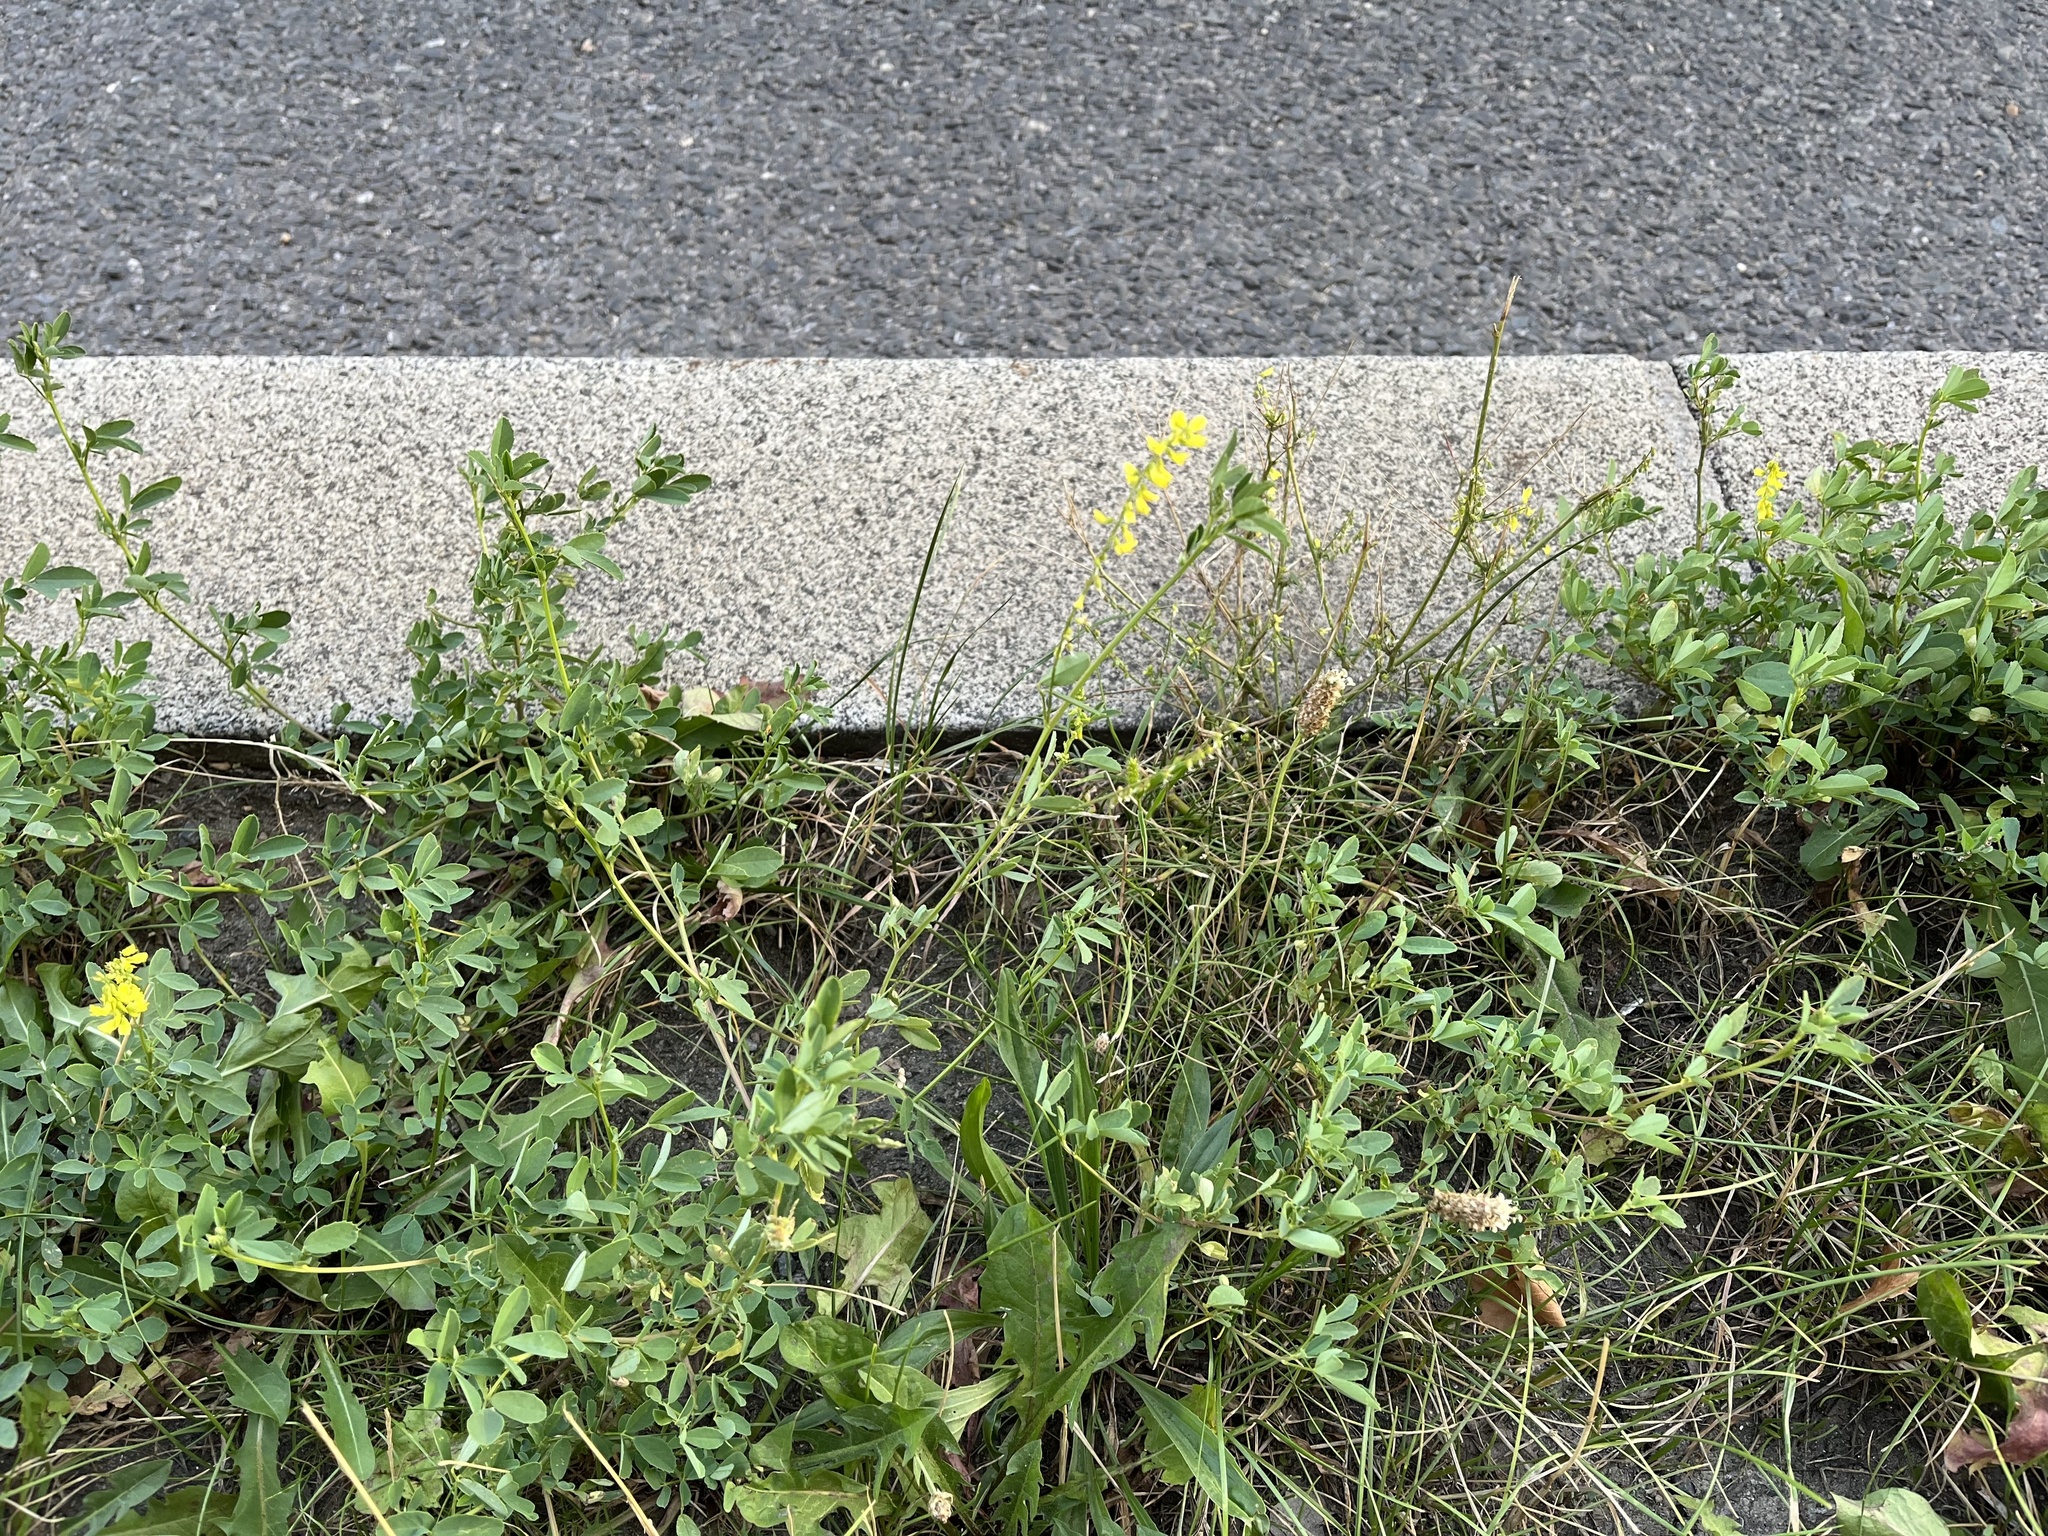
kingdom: Plantae
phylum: Tracheophyta
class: Magnoliopsida
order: Fabales
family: Fabaceae
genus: Melilotus
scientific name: Melilotus officinalis
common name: Sweetclover
